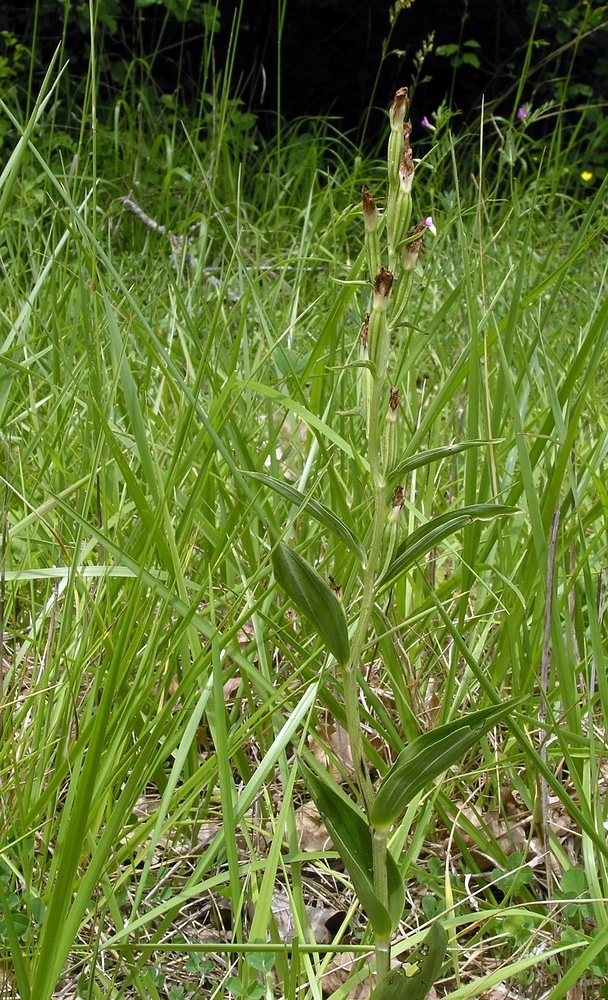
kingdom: Plantae
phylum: Tracheophyta
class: Liliopsida
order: Asparagales
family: Orchidaceae
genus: Cephalanthera
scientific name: Cephalanthera damasonium
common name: White helleborine
